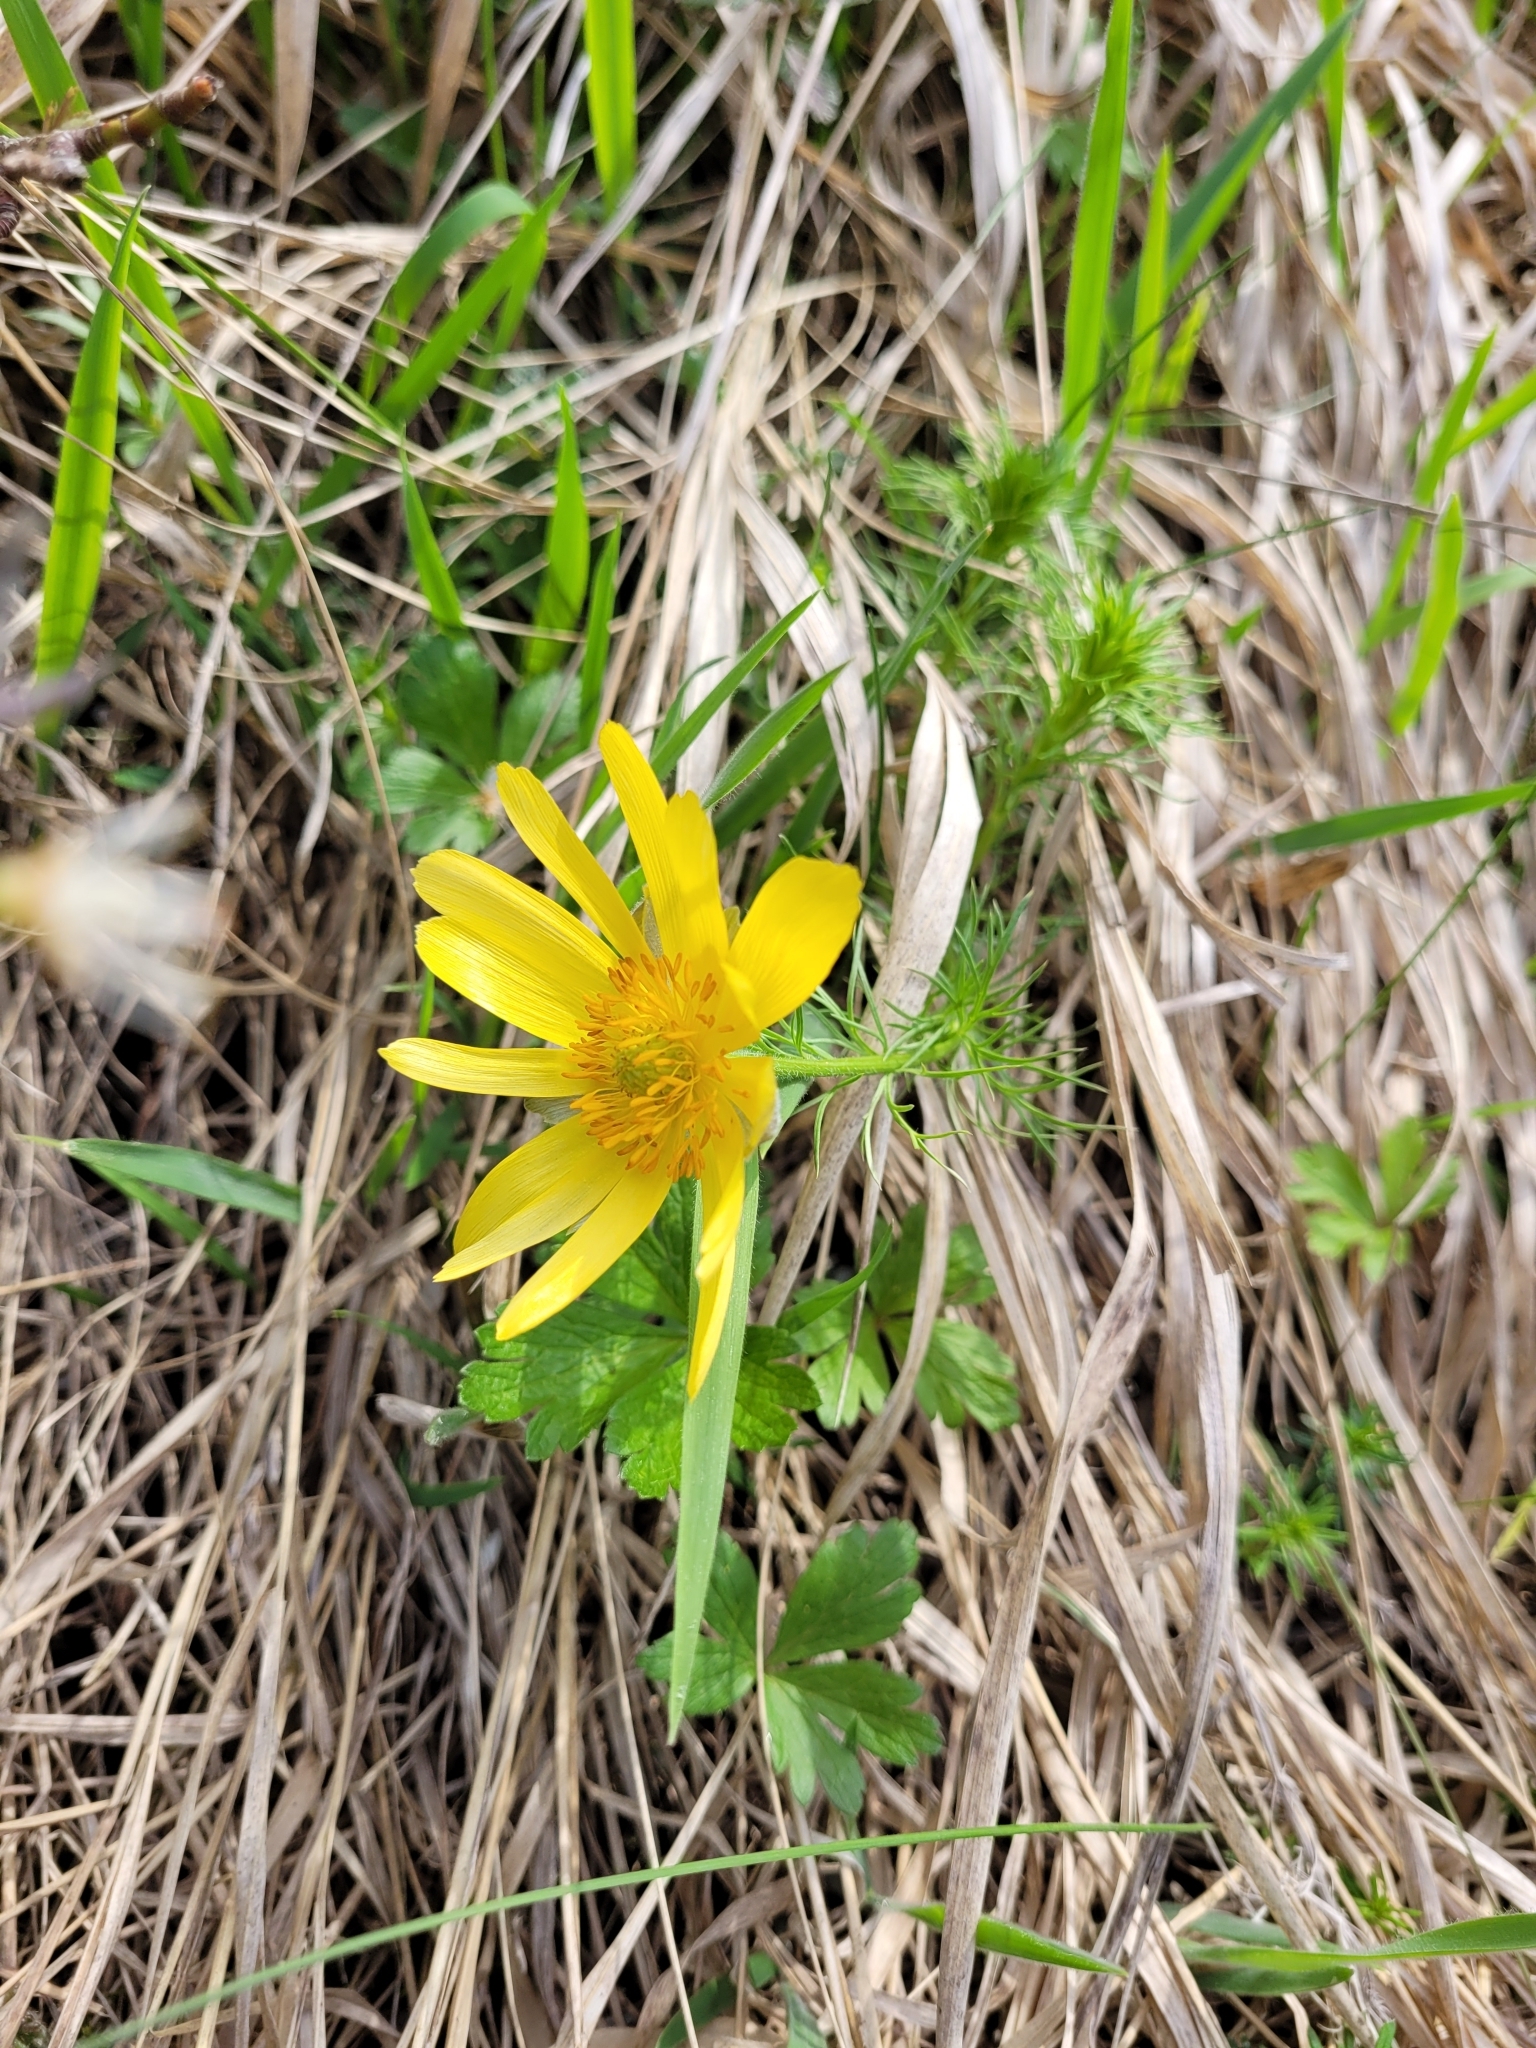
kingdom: Plantae
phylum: Tracheophyta
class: Magnoliopsida
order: Ranunculales
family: Ranunculaceae
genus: Adonis
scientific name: Adonis vernalis
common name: Yellow pheasants-eye
